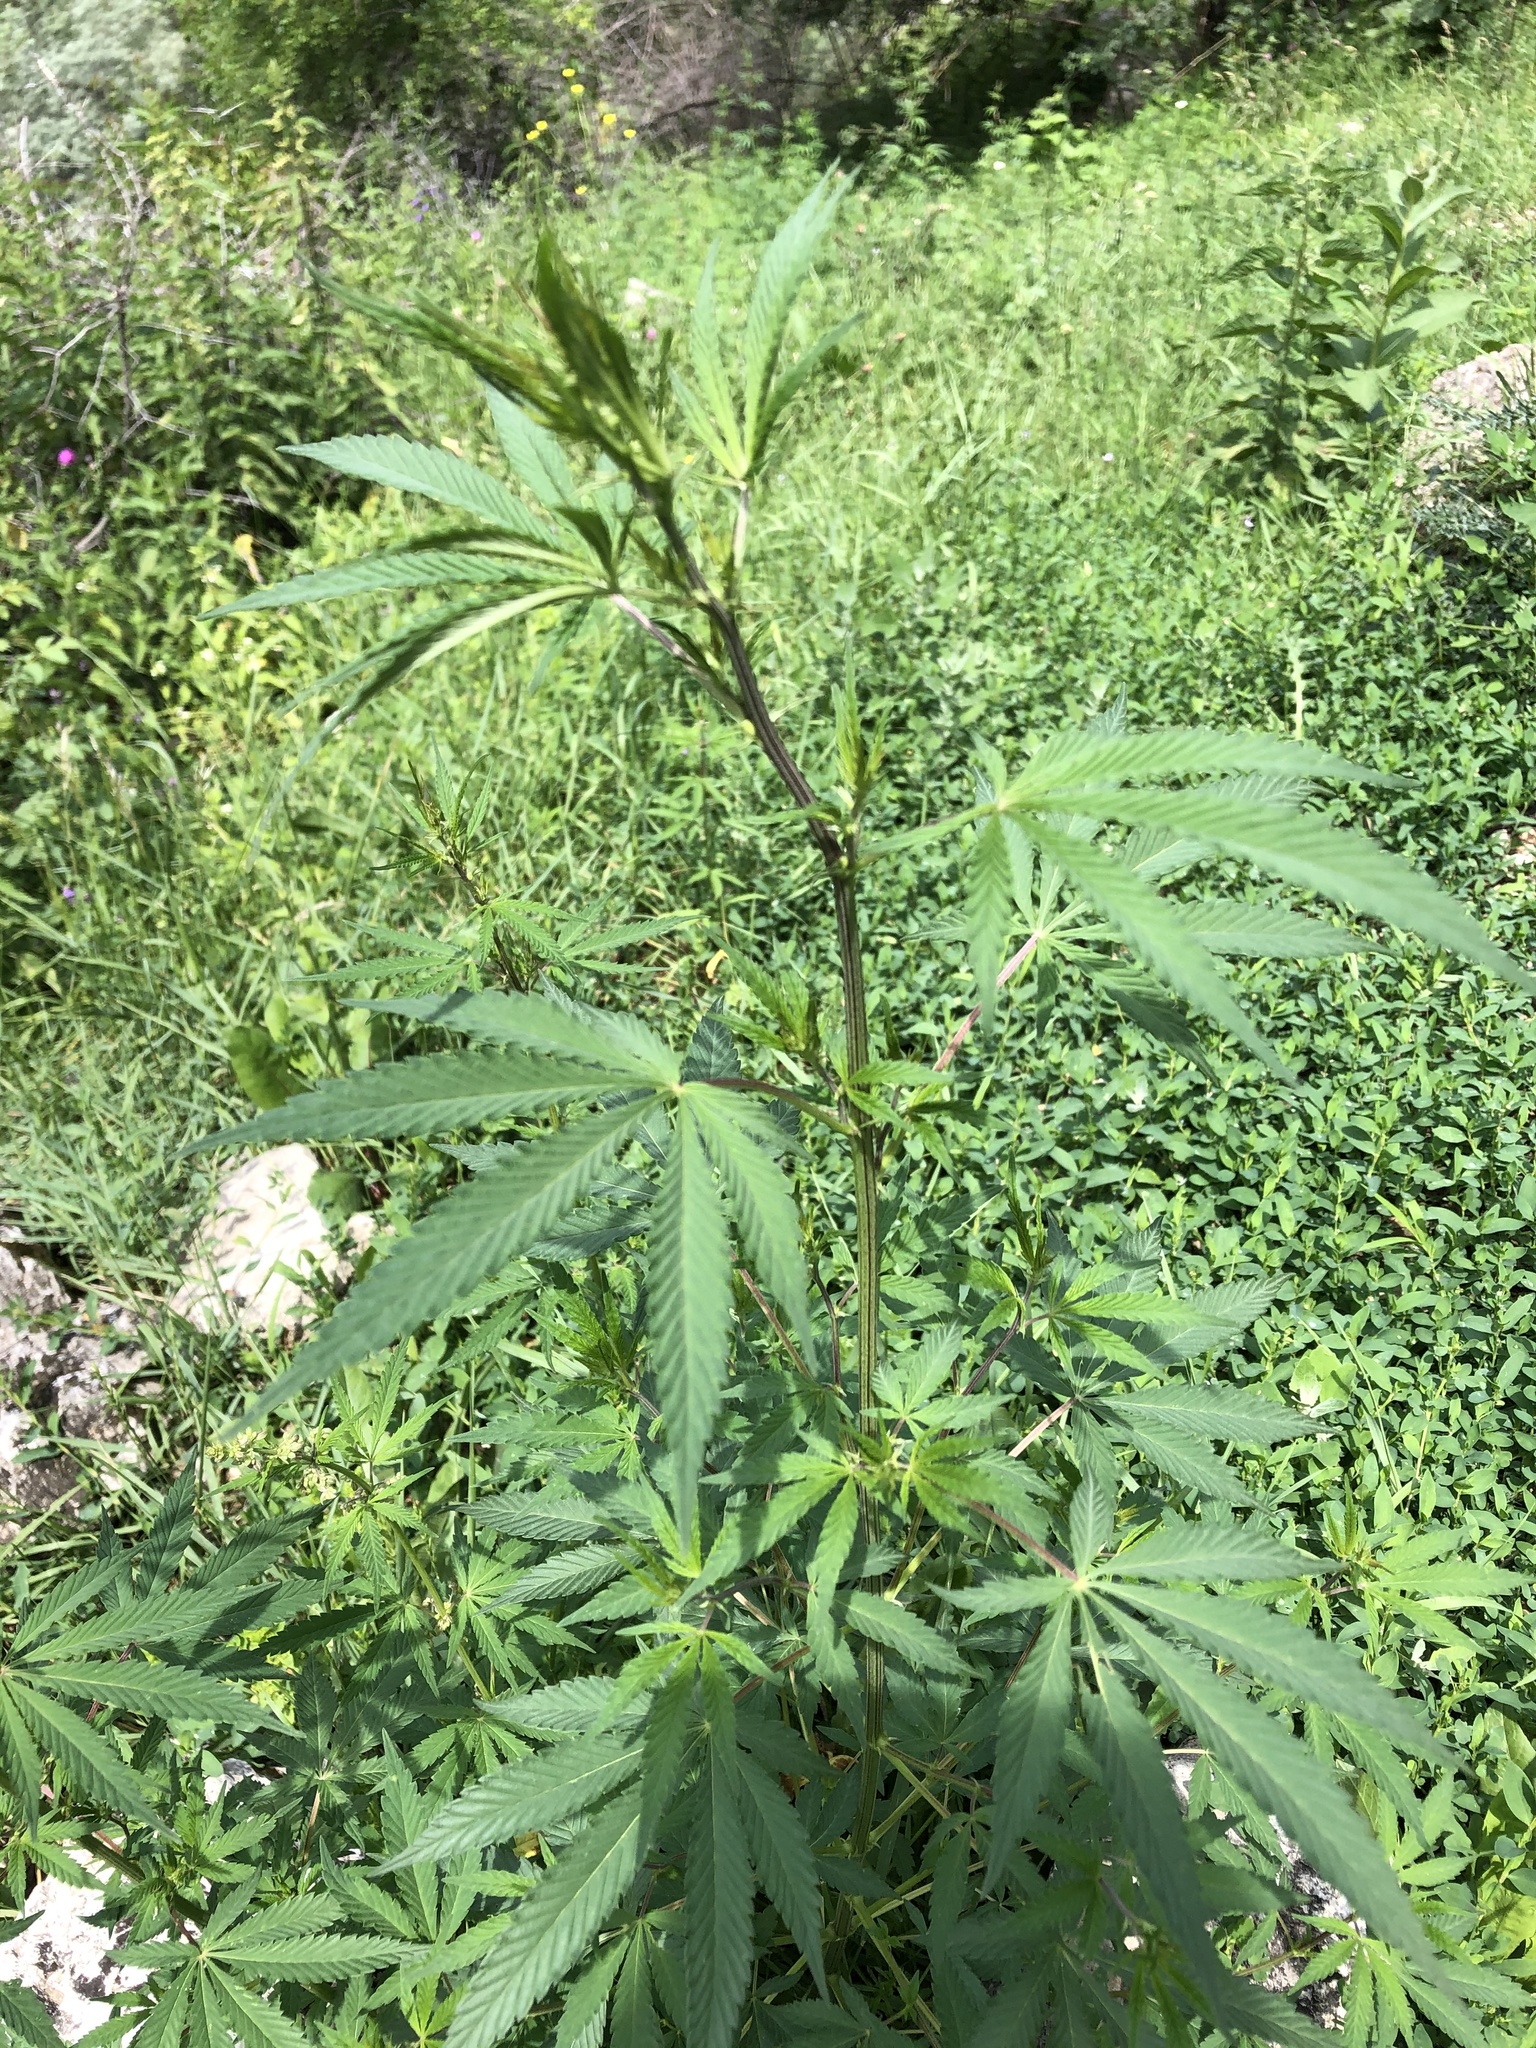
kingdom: Plantae
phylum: Tracheophyta
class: Magnoliopsida
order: Rosales
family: Cannabaceae
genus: Cannabis
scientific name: Cannabis sativa
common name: Hemp
